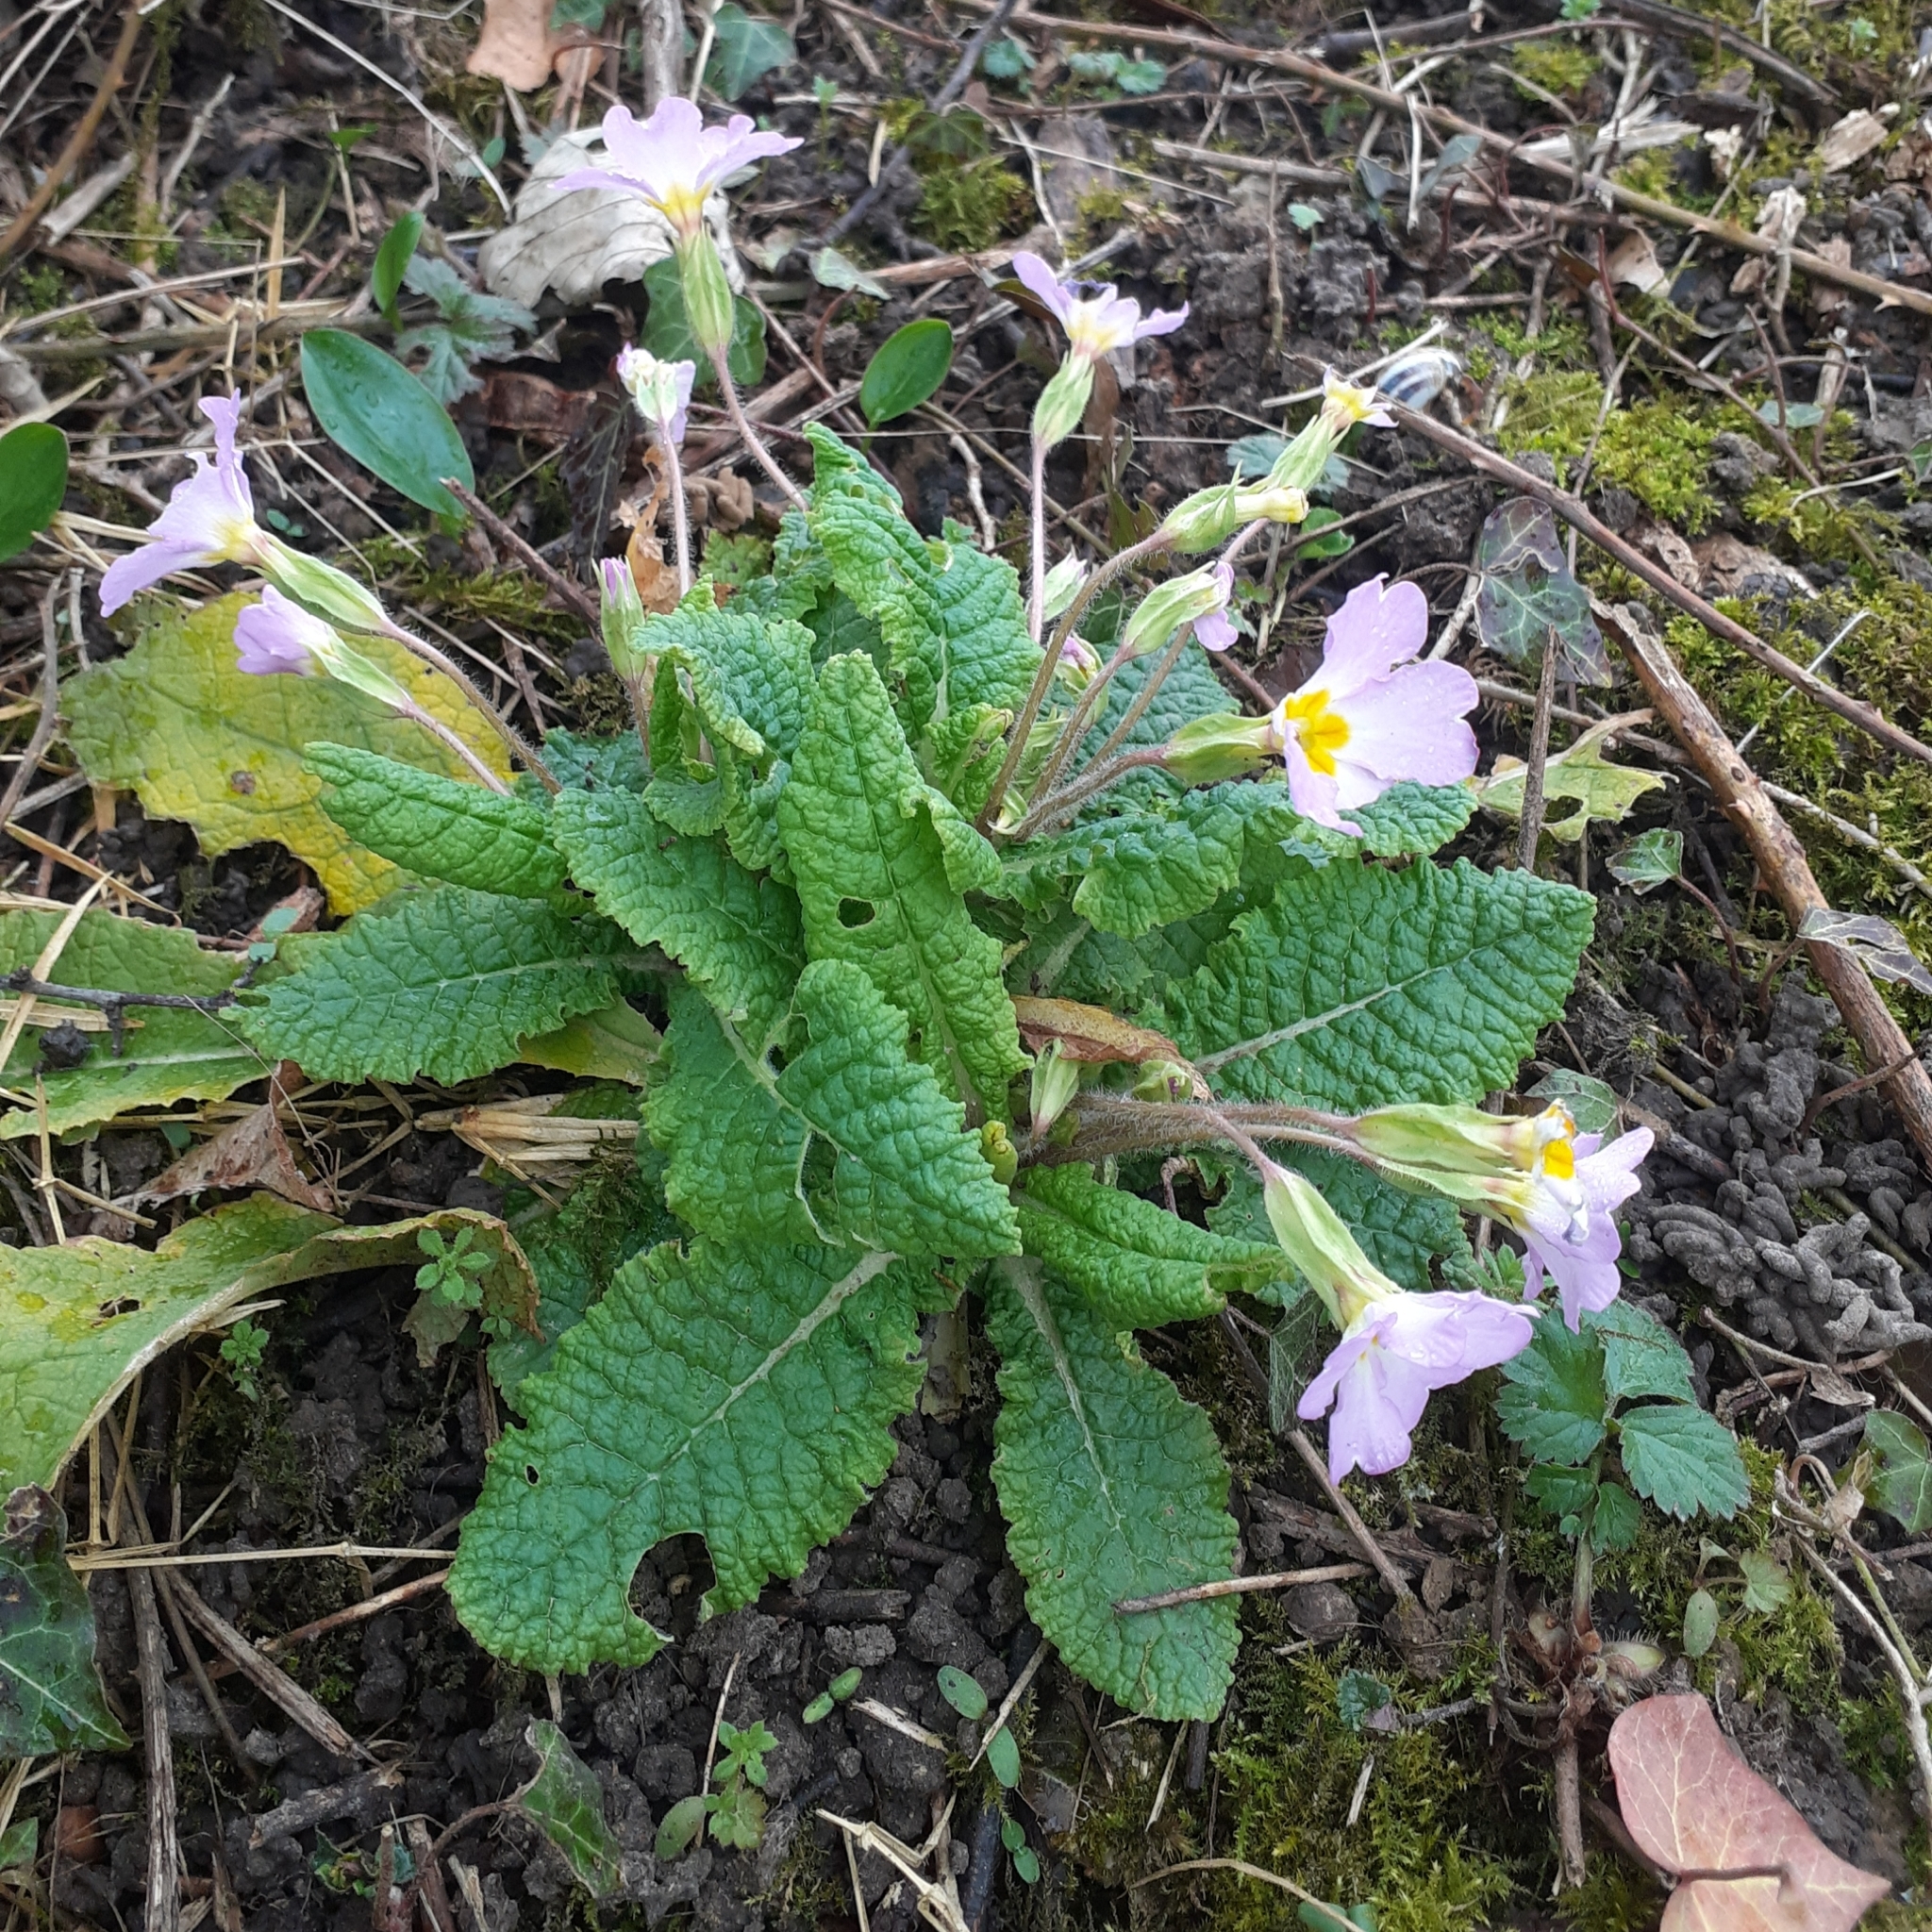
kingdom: Plantae
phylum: Tracheophyta
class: Magnoliopsida
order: Ericales
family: Primulaceae
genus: Primula
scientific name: Primula vulgaris
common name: Primrose
